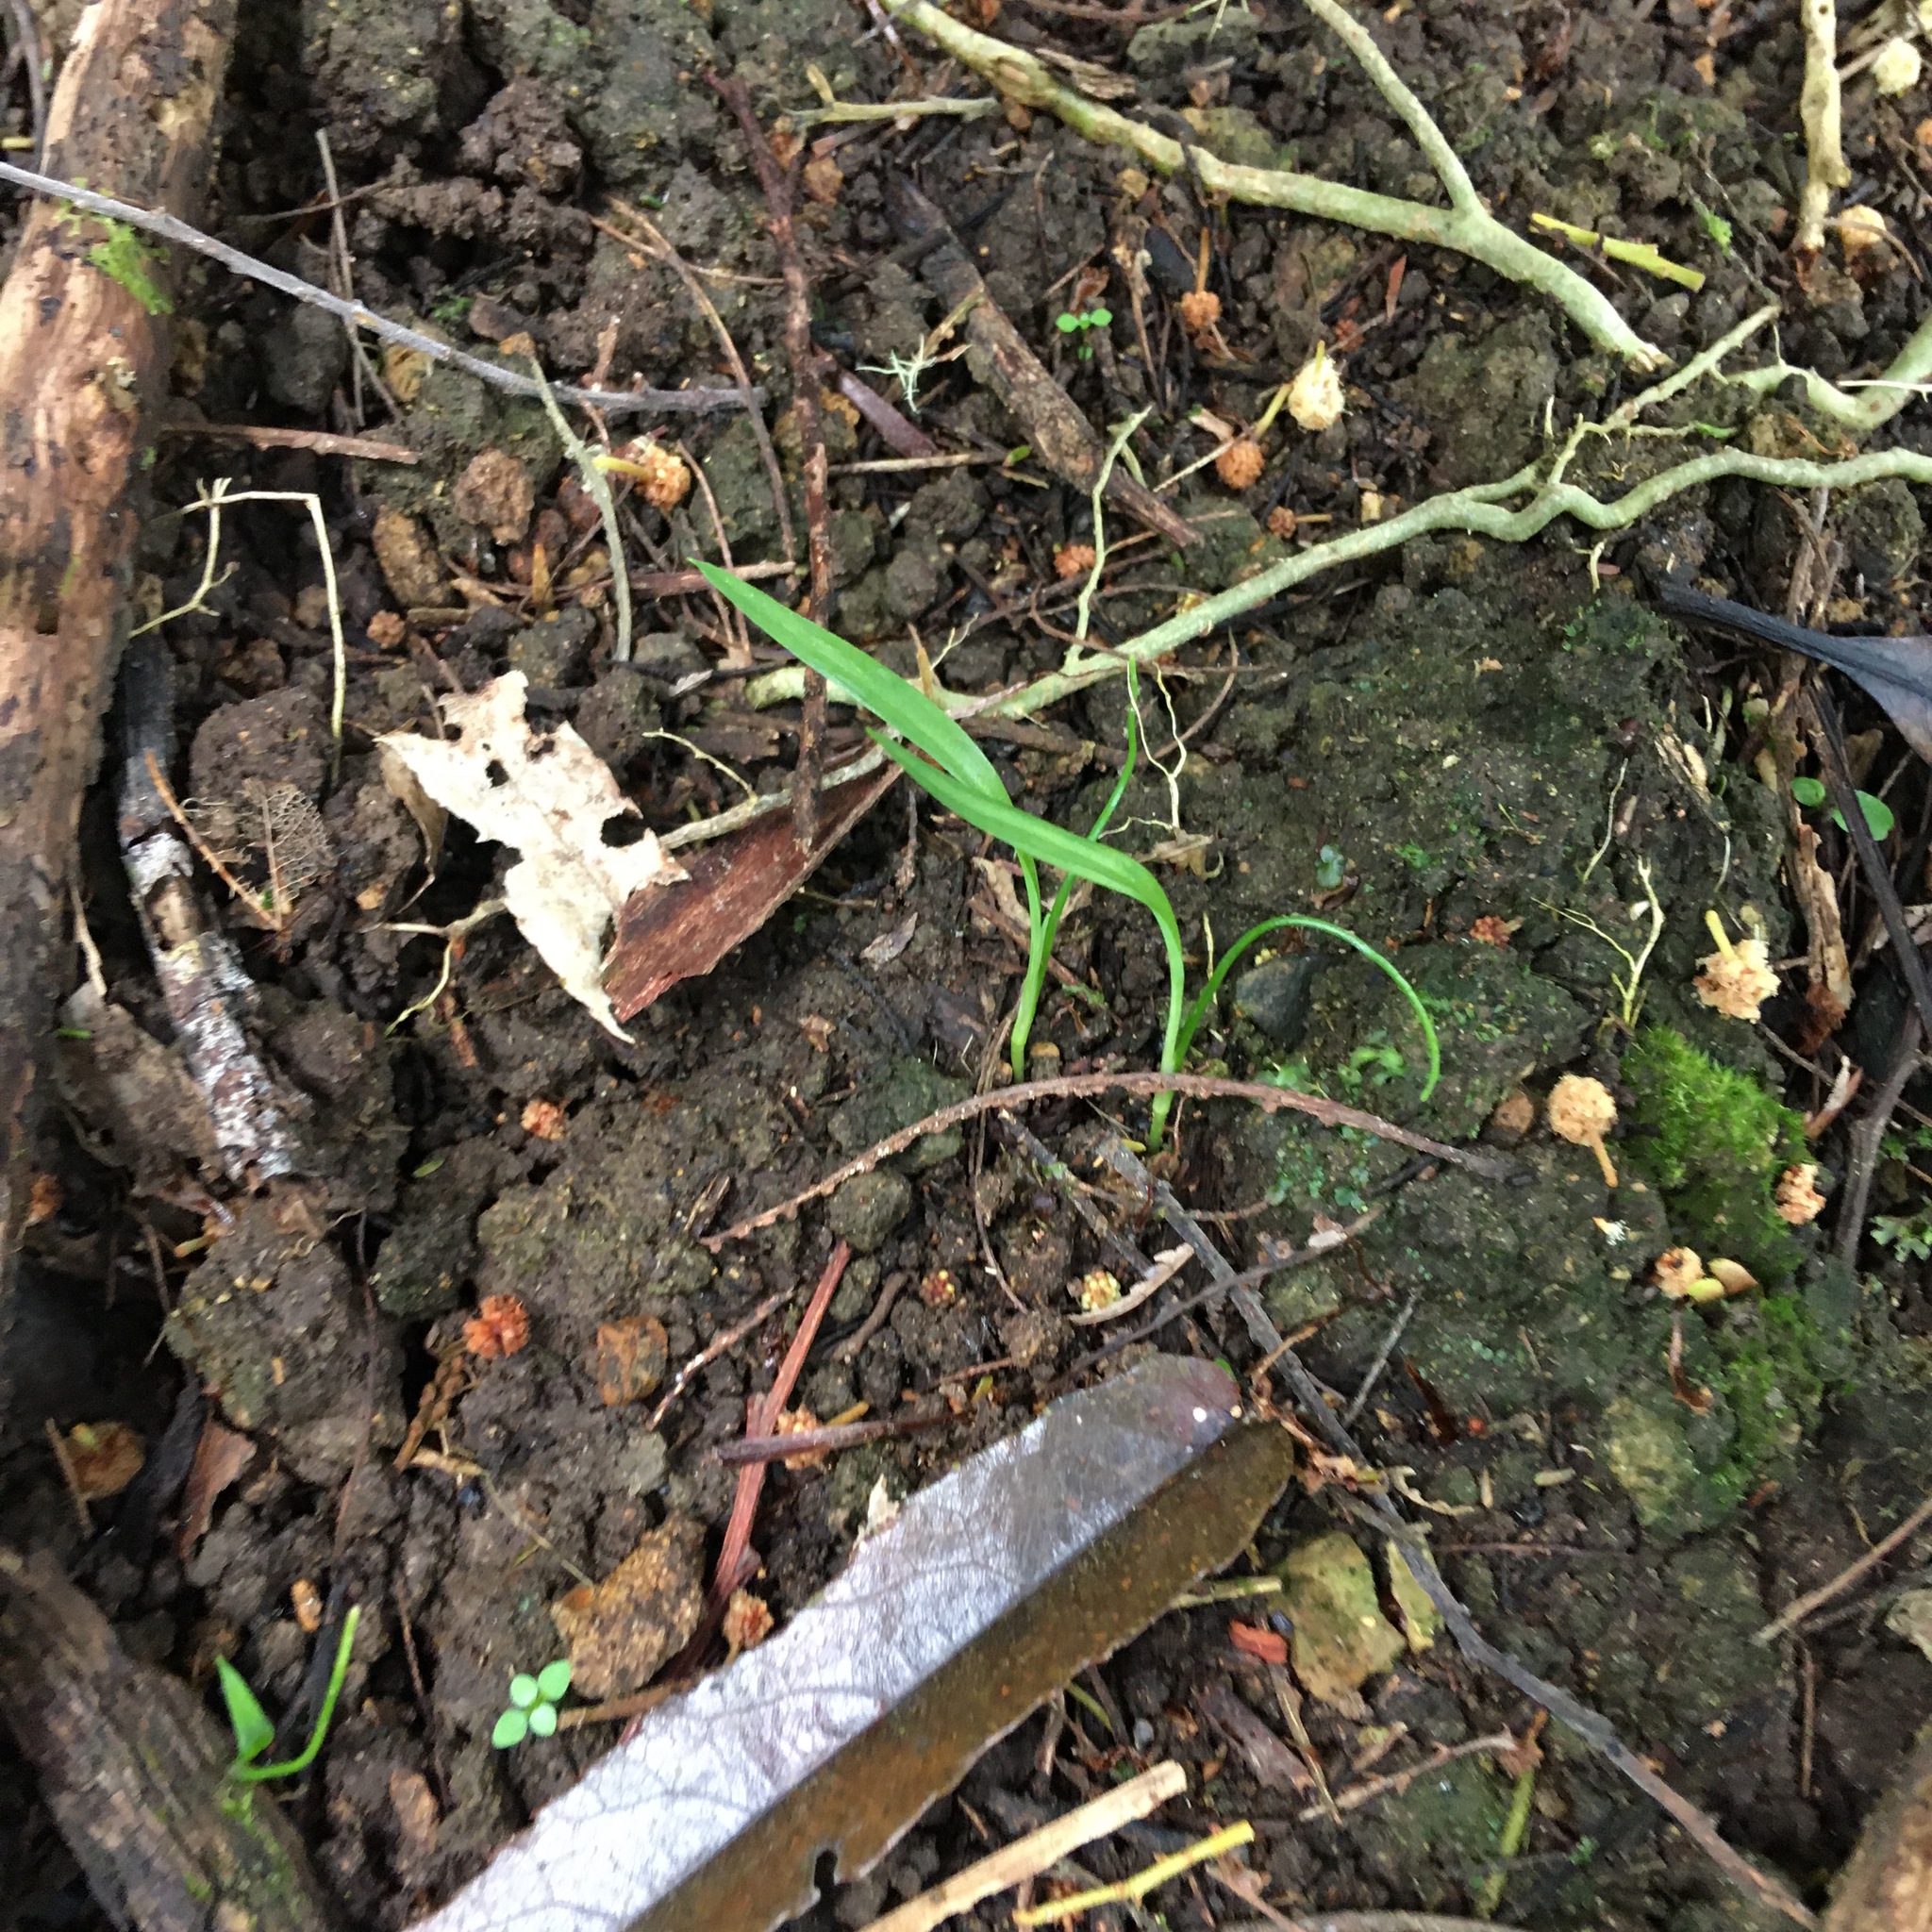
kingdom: Plantae
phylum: Tracheophyta
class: Liliopsida
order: Asparagales
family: Asparagaceae
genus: Cordyline
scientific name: Cordyline australis
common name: Cabbage-palm
